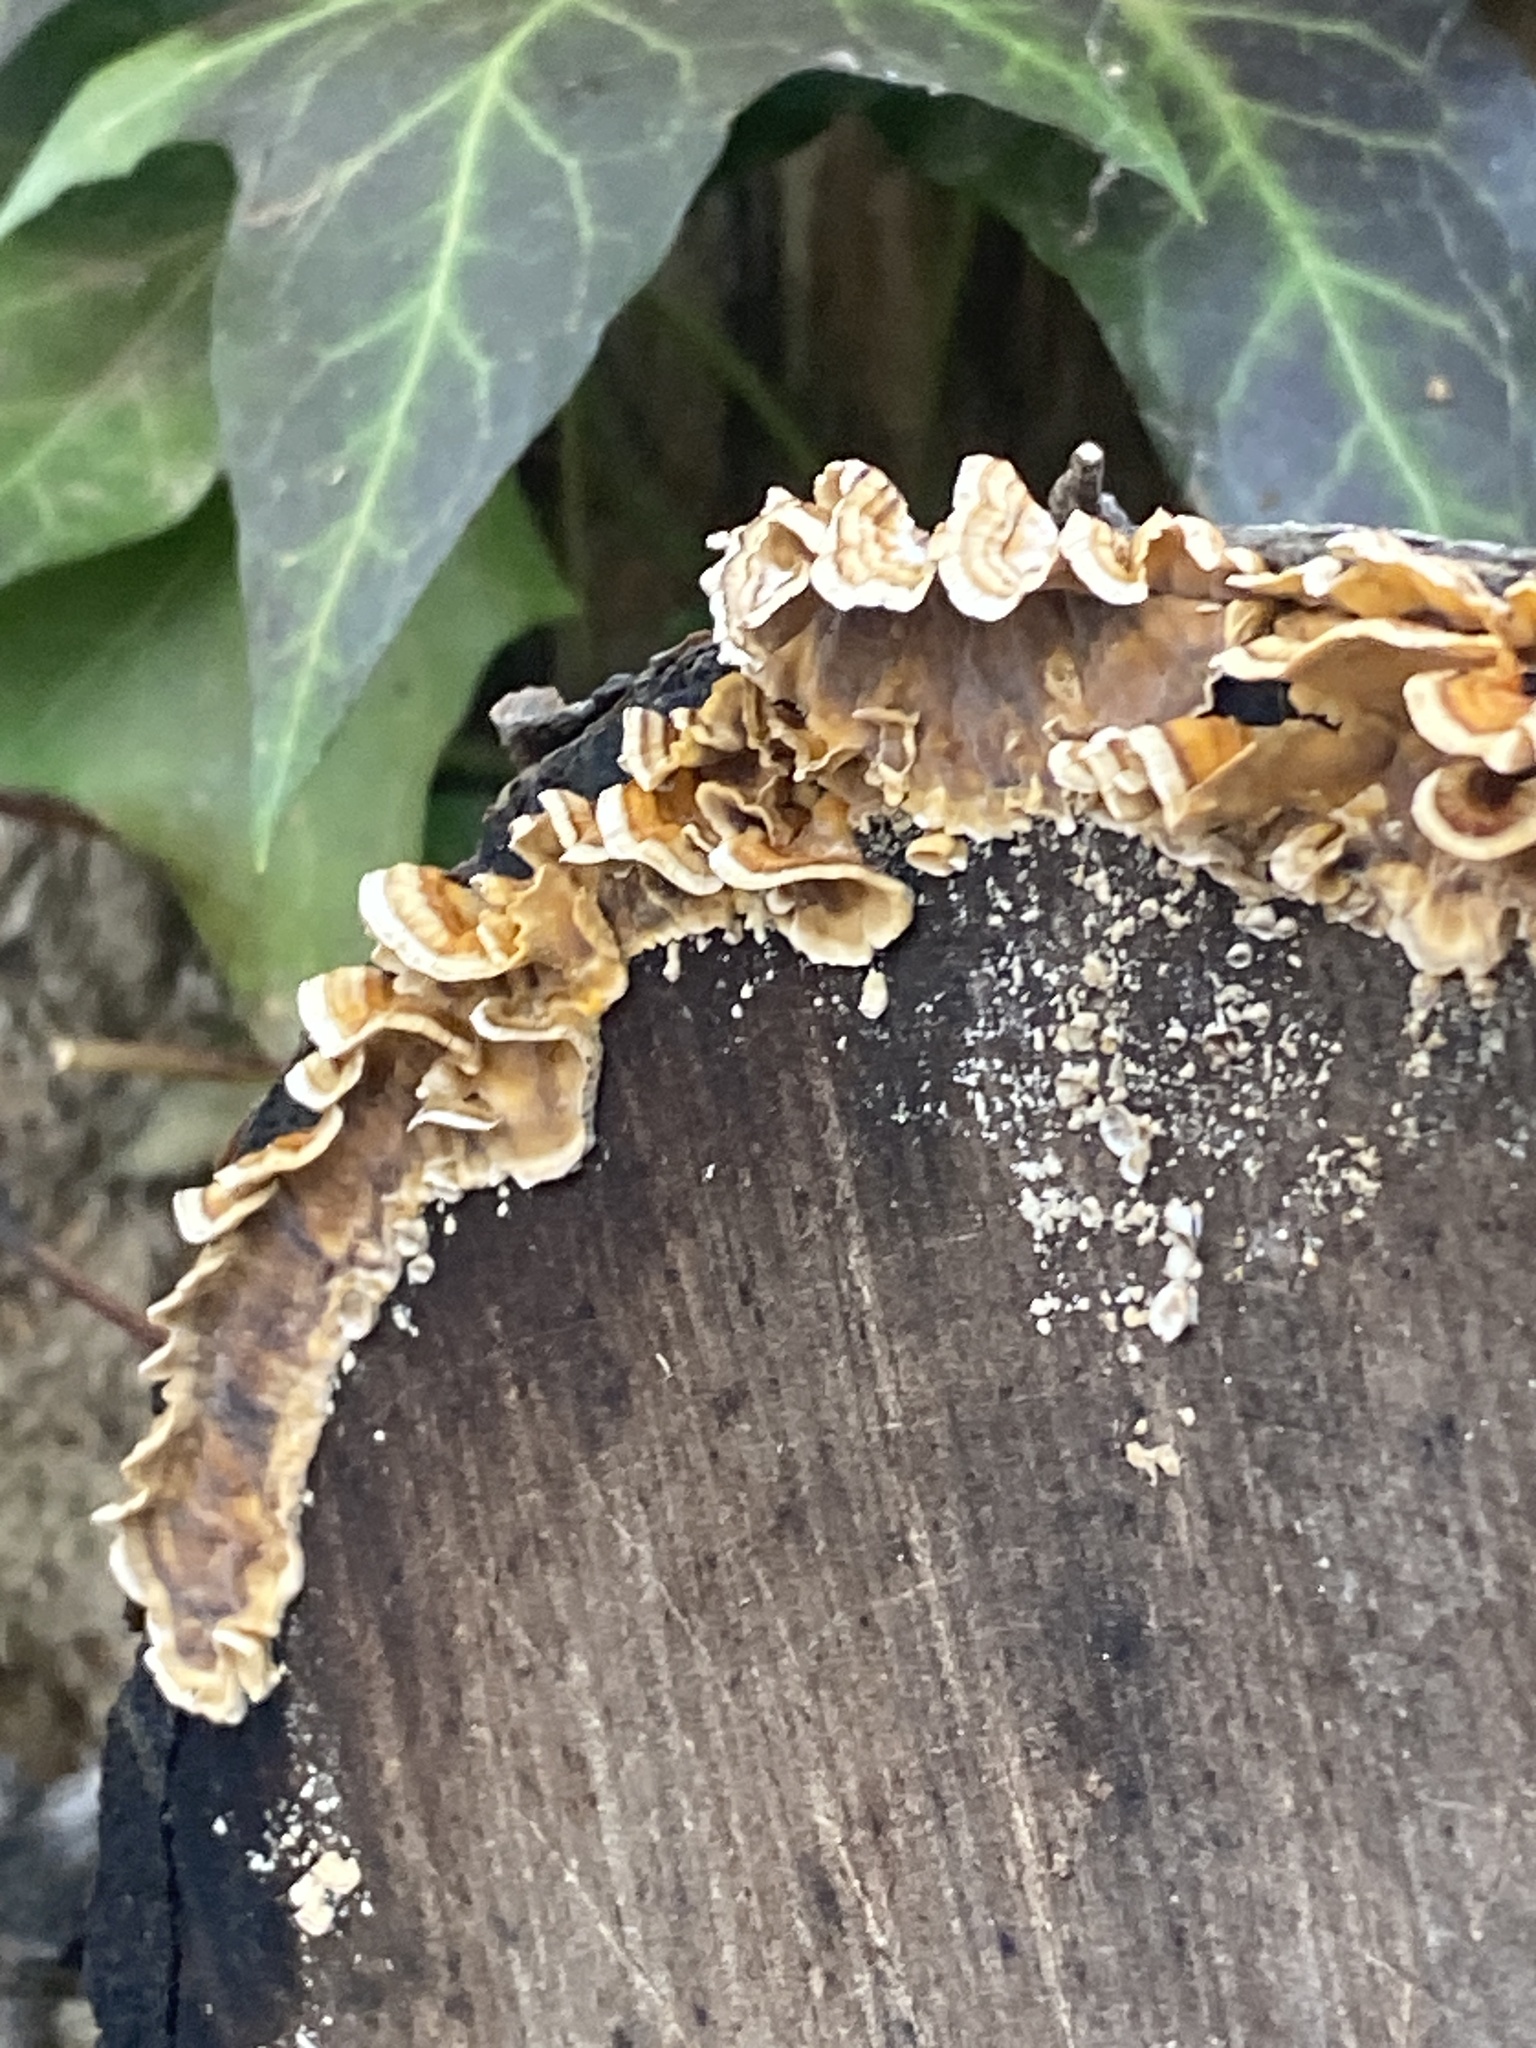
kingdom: Fungi
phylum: Basidiomycota
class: Agaricomycetes
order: Russulales
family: Stereaceae
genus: Stereum
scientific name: Stereum complicatum
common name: Crowded parchment
